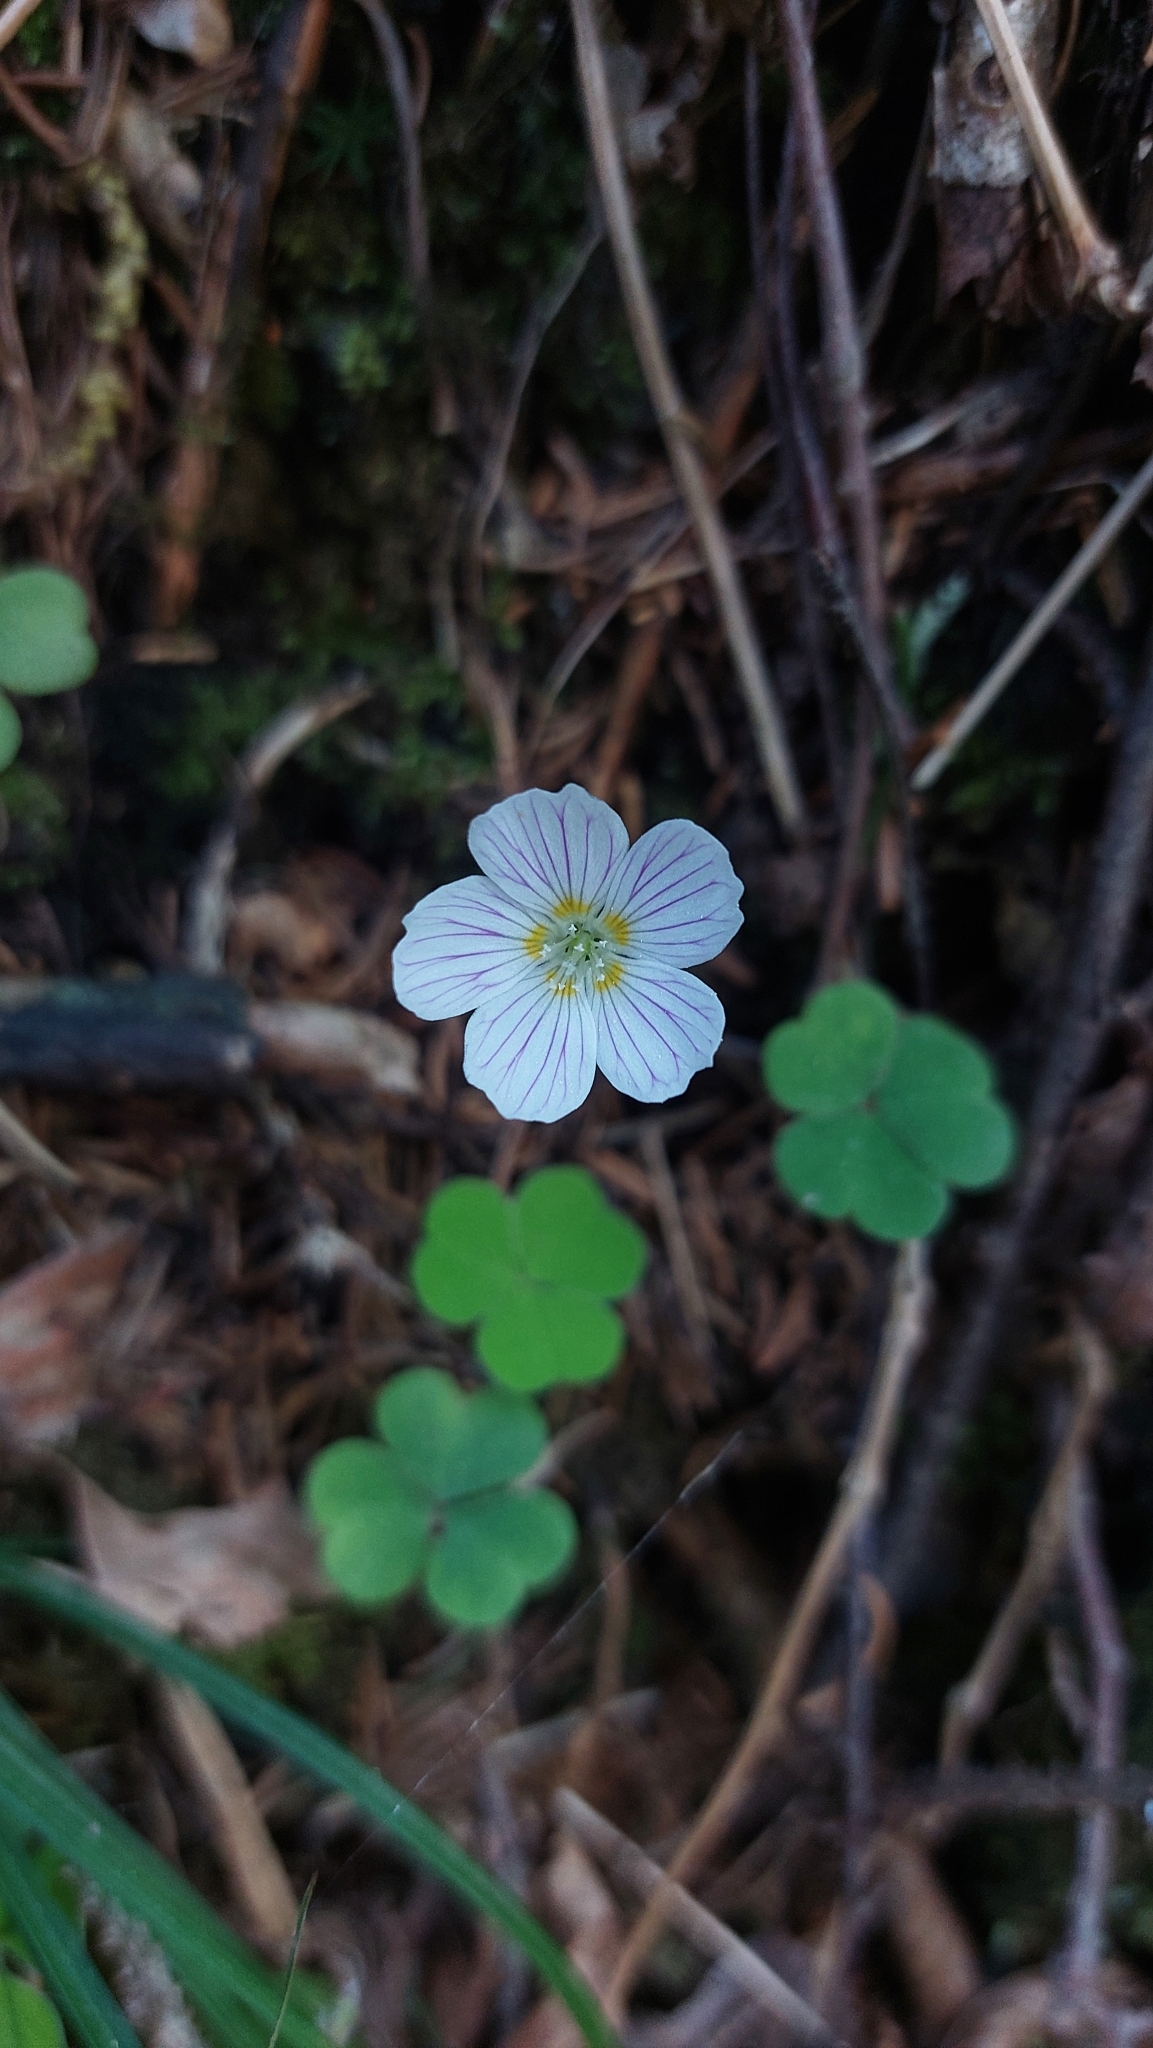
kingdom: Plantae
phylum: Tracheophyta
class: Magnoliopsida
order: Oxalidales
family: Oxalidaceae
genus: Oxalis
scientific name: Oxalis acetosella
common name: Wood-sorrel
